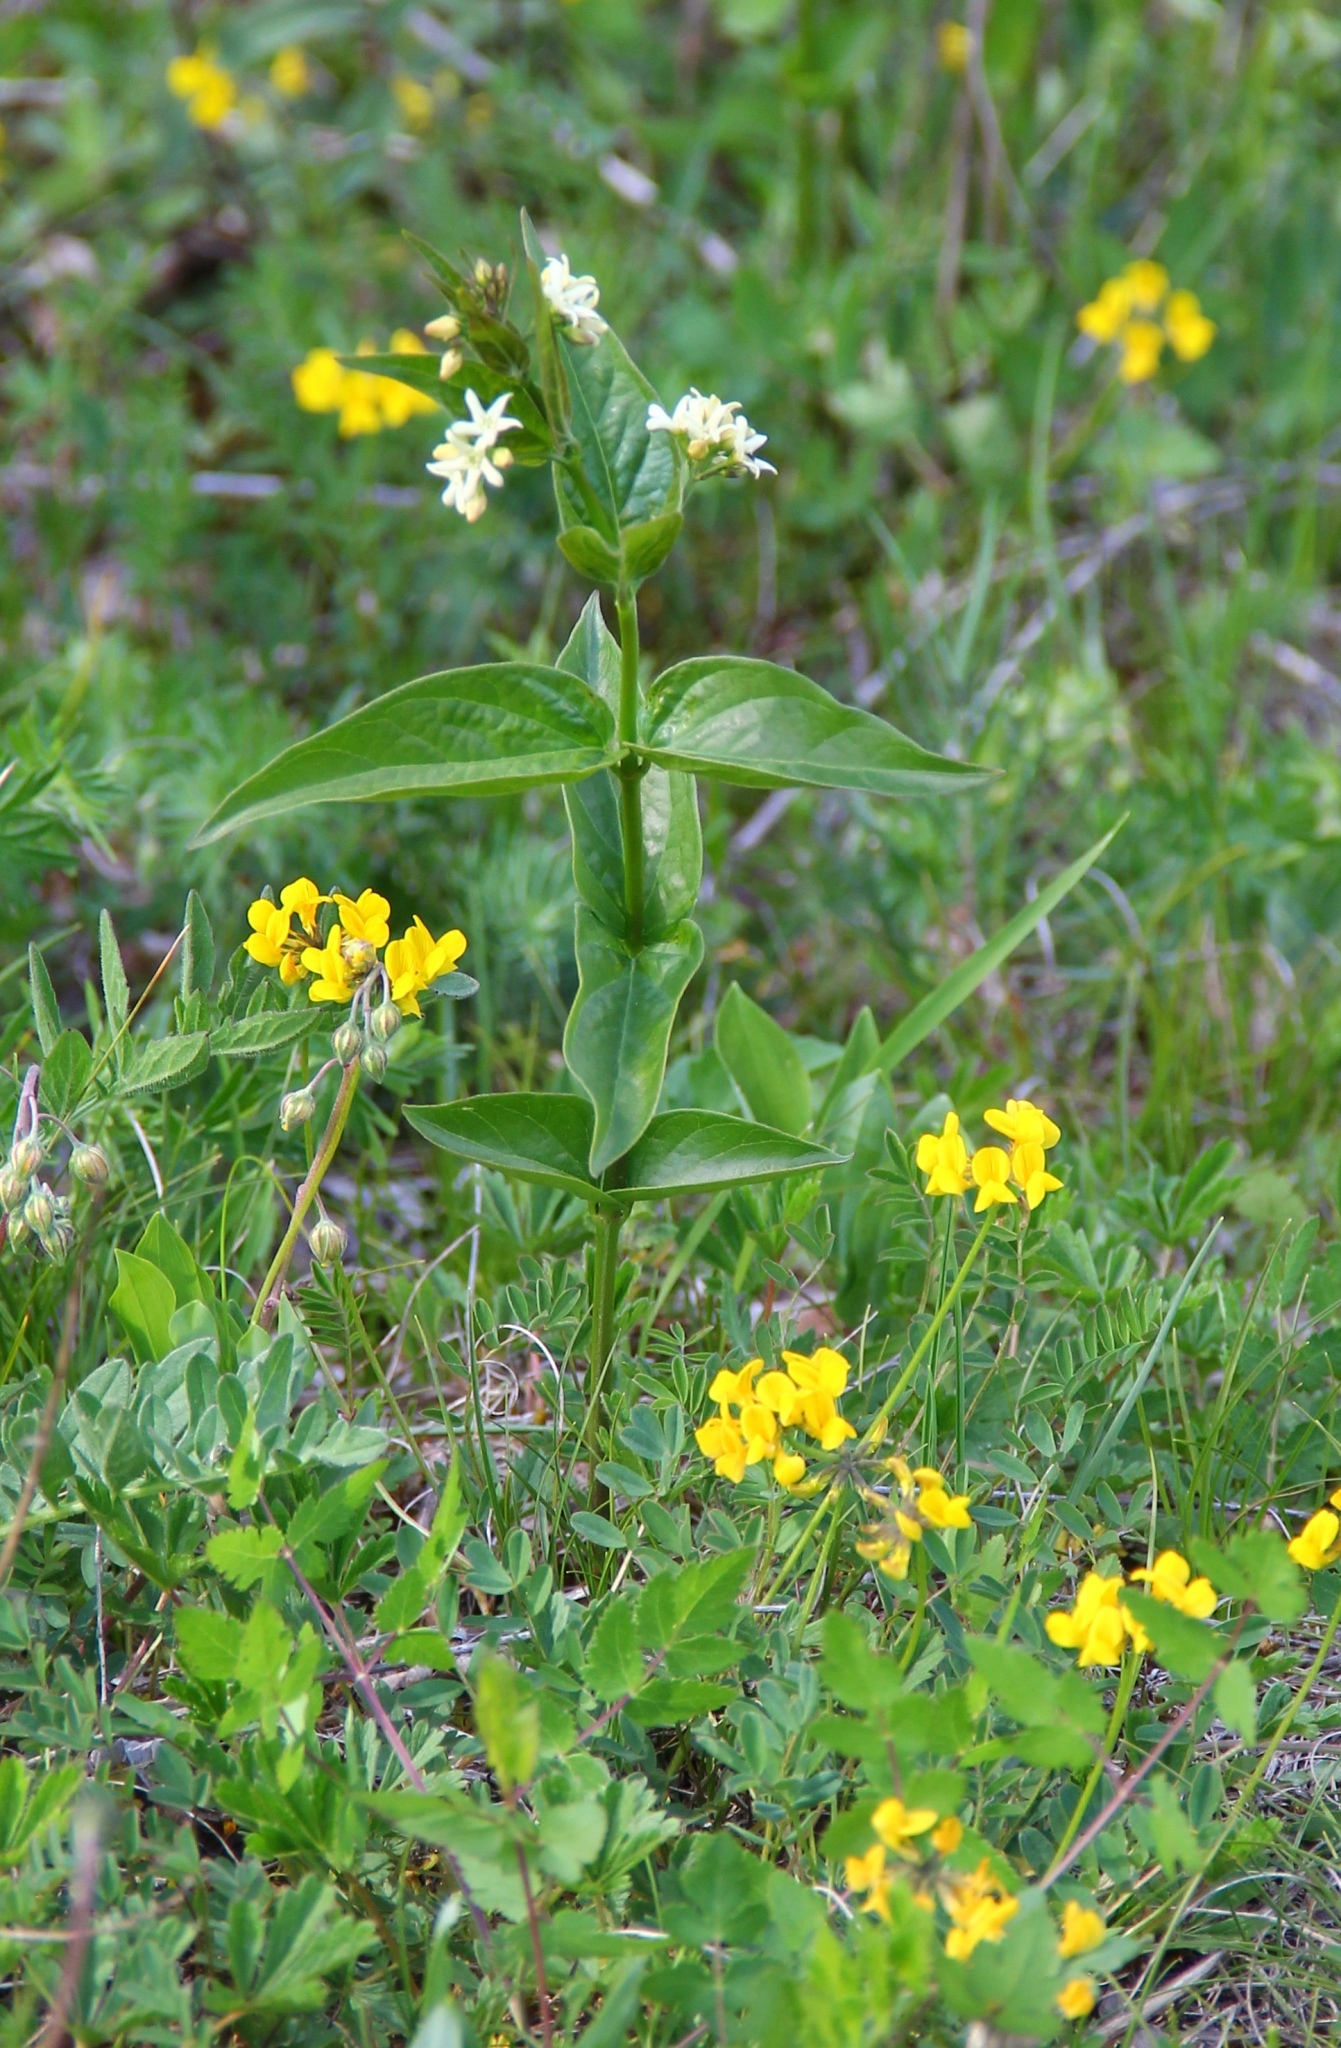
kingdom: Plantae
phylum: Tracheophyta
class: Magnoliopsida
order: Gentianales
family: Apocynaceae
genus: Vincetoxicum
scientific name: Vincetoxicum hirundinaria
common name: White swallowwort
